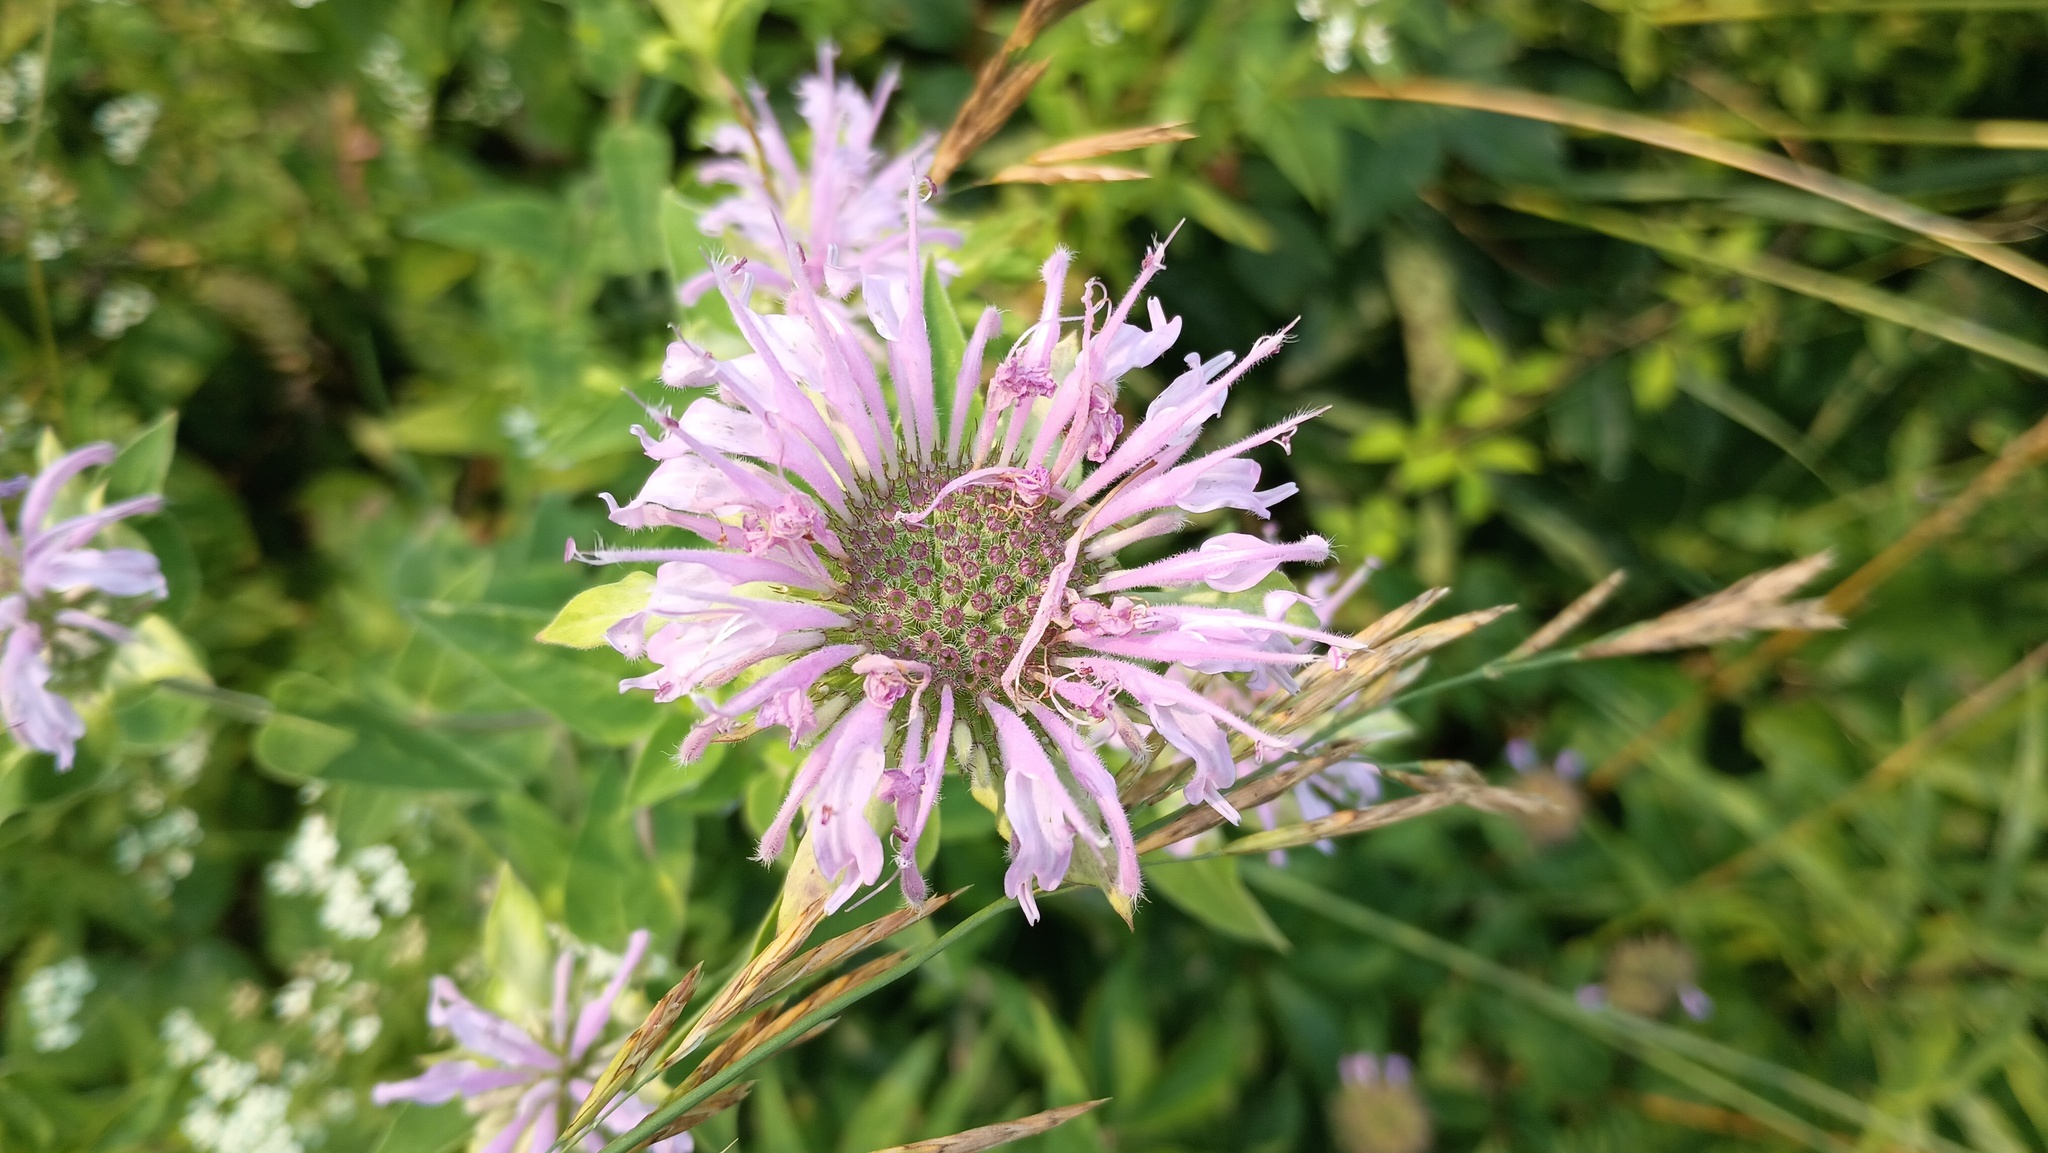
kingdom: Plantae
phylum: Tracheophyta
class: Magnoliopsida
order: Lamiales
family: Lamiaceae
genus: Monarda
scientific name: Monarda fistulosa
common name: Purple beebalm
